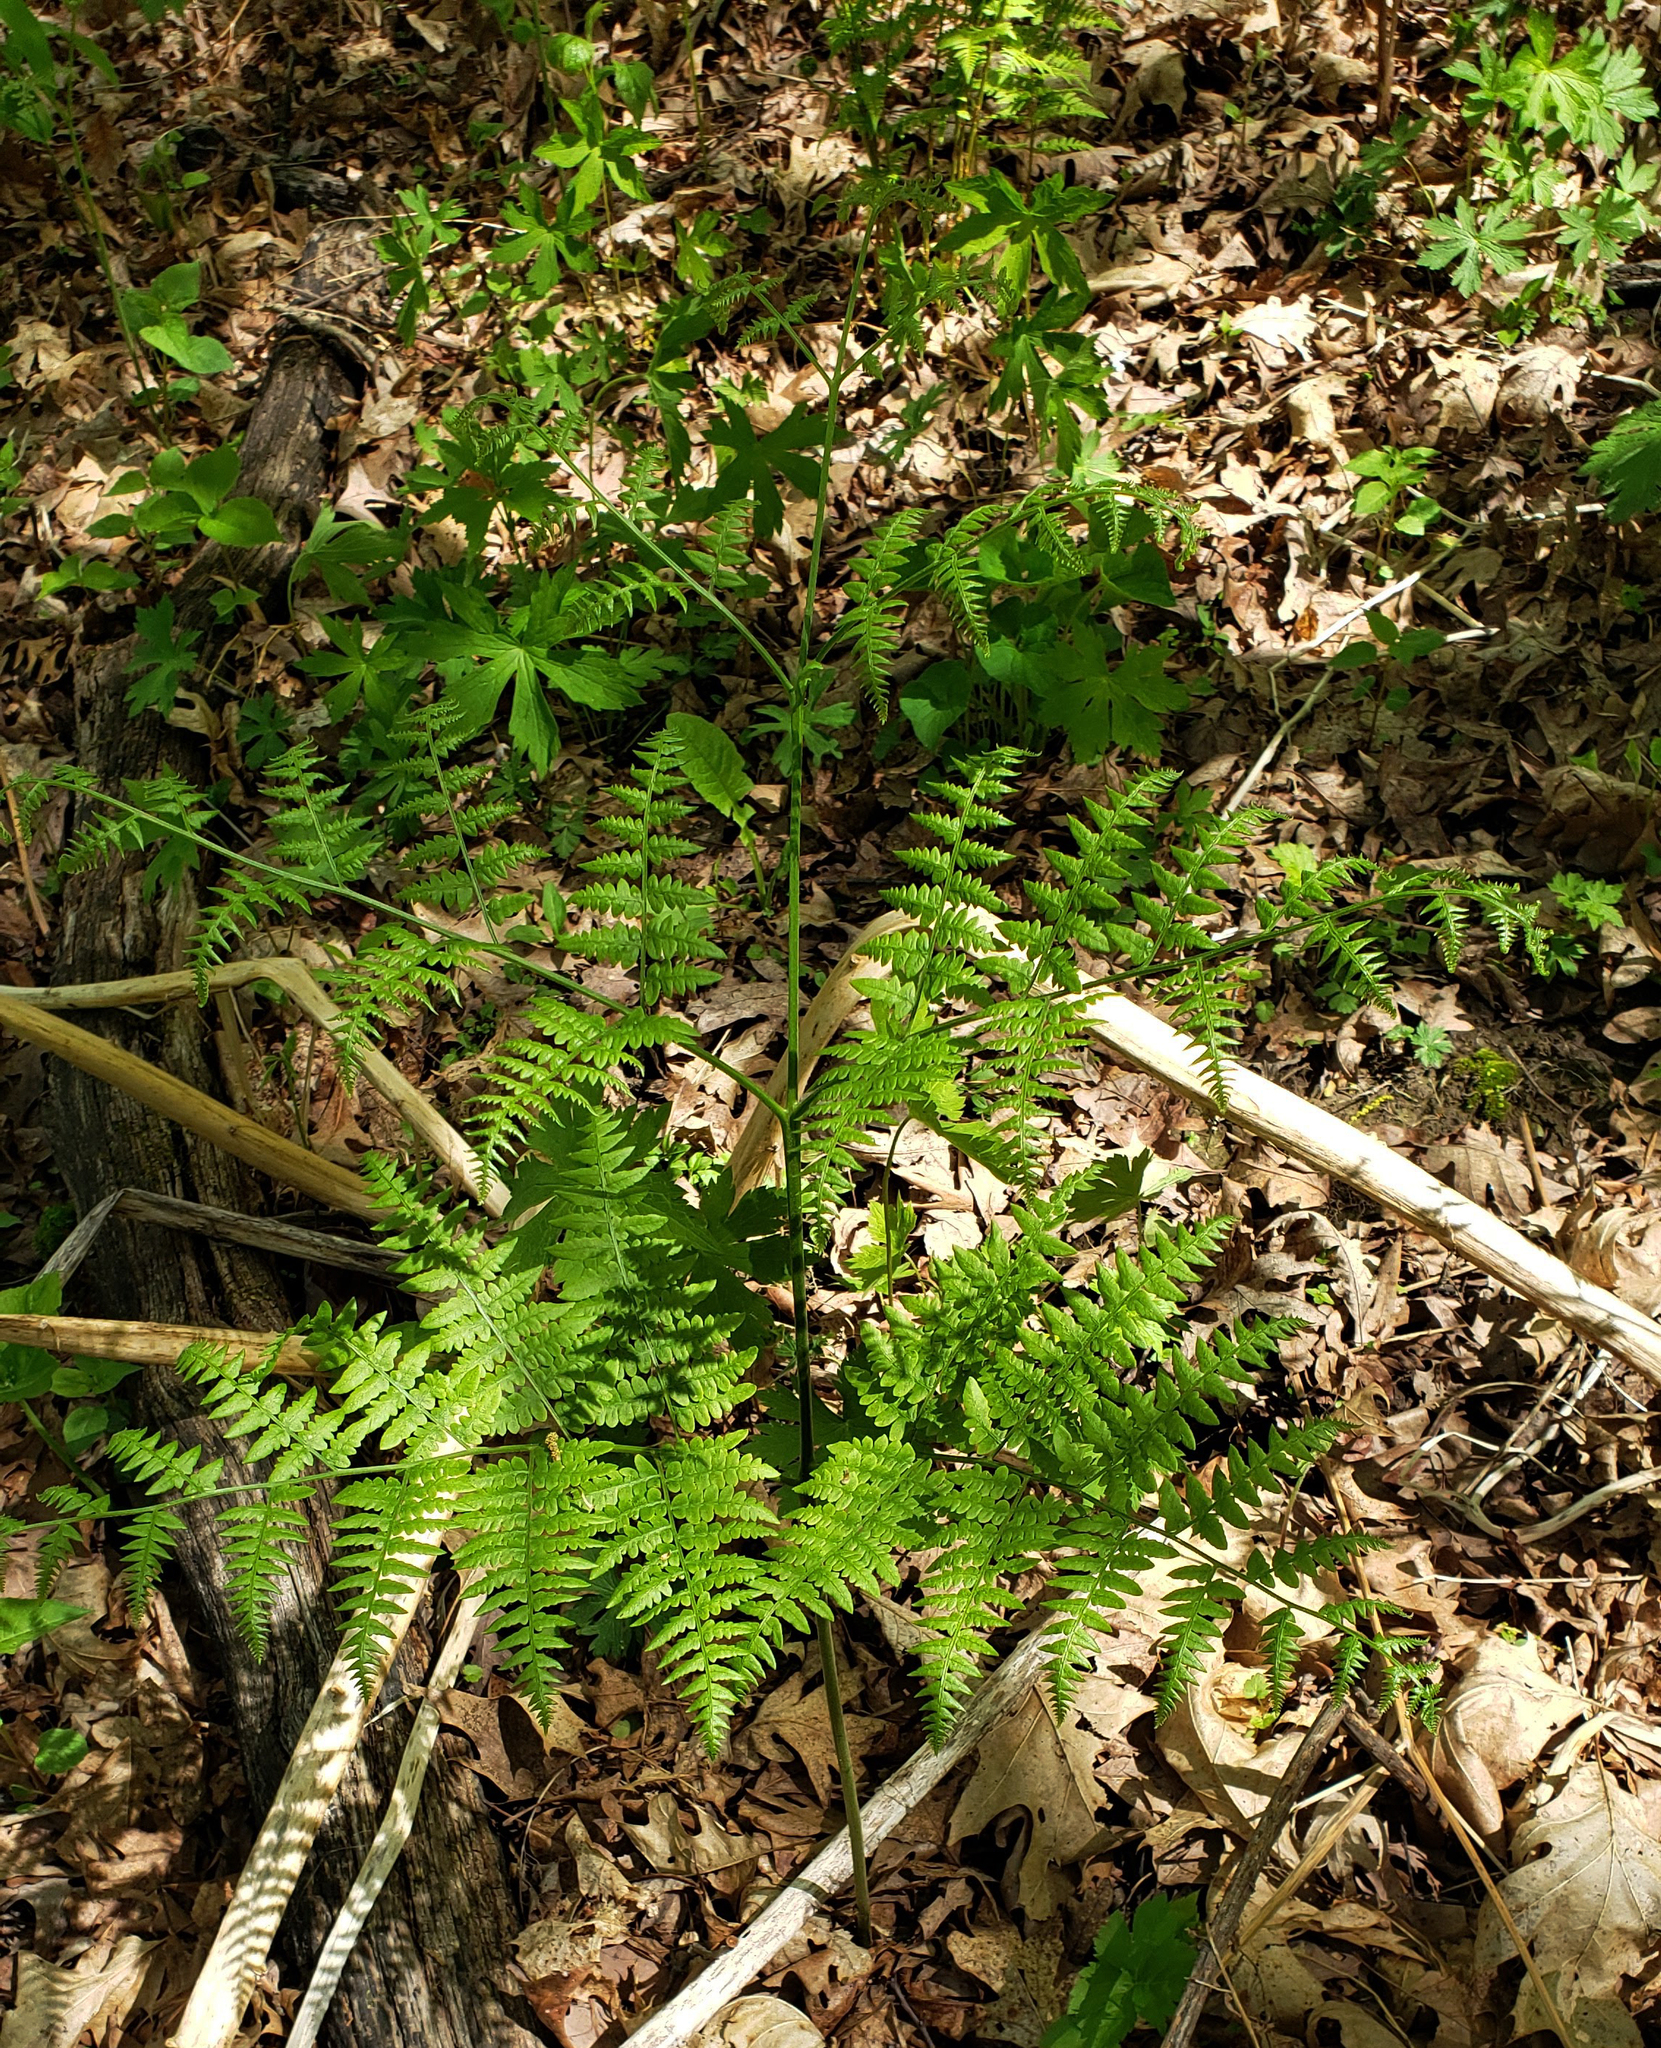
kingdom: Plantae
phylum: Tracheophyta
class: Polypodiopsida
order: Polypodiales
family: Dennstaedtiaceae
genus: Pteridium
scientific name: Pteridium aquilinum
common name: Bracken
